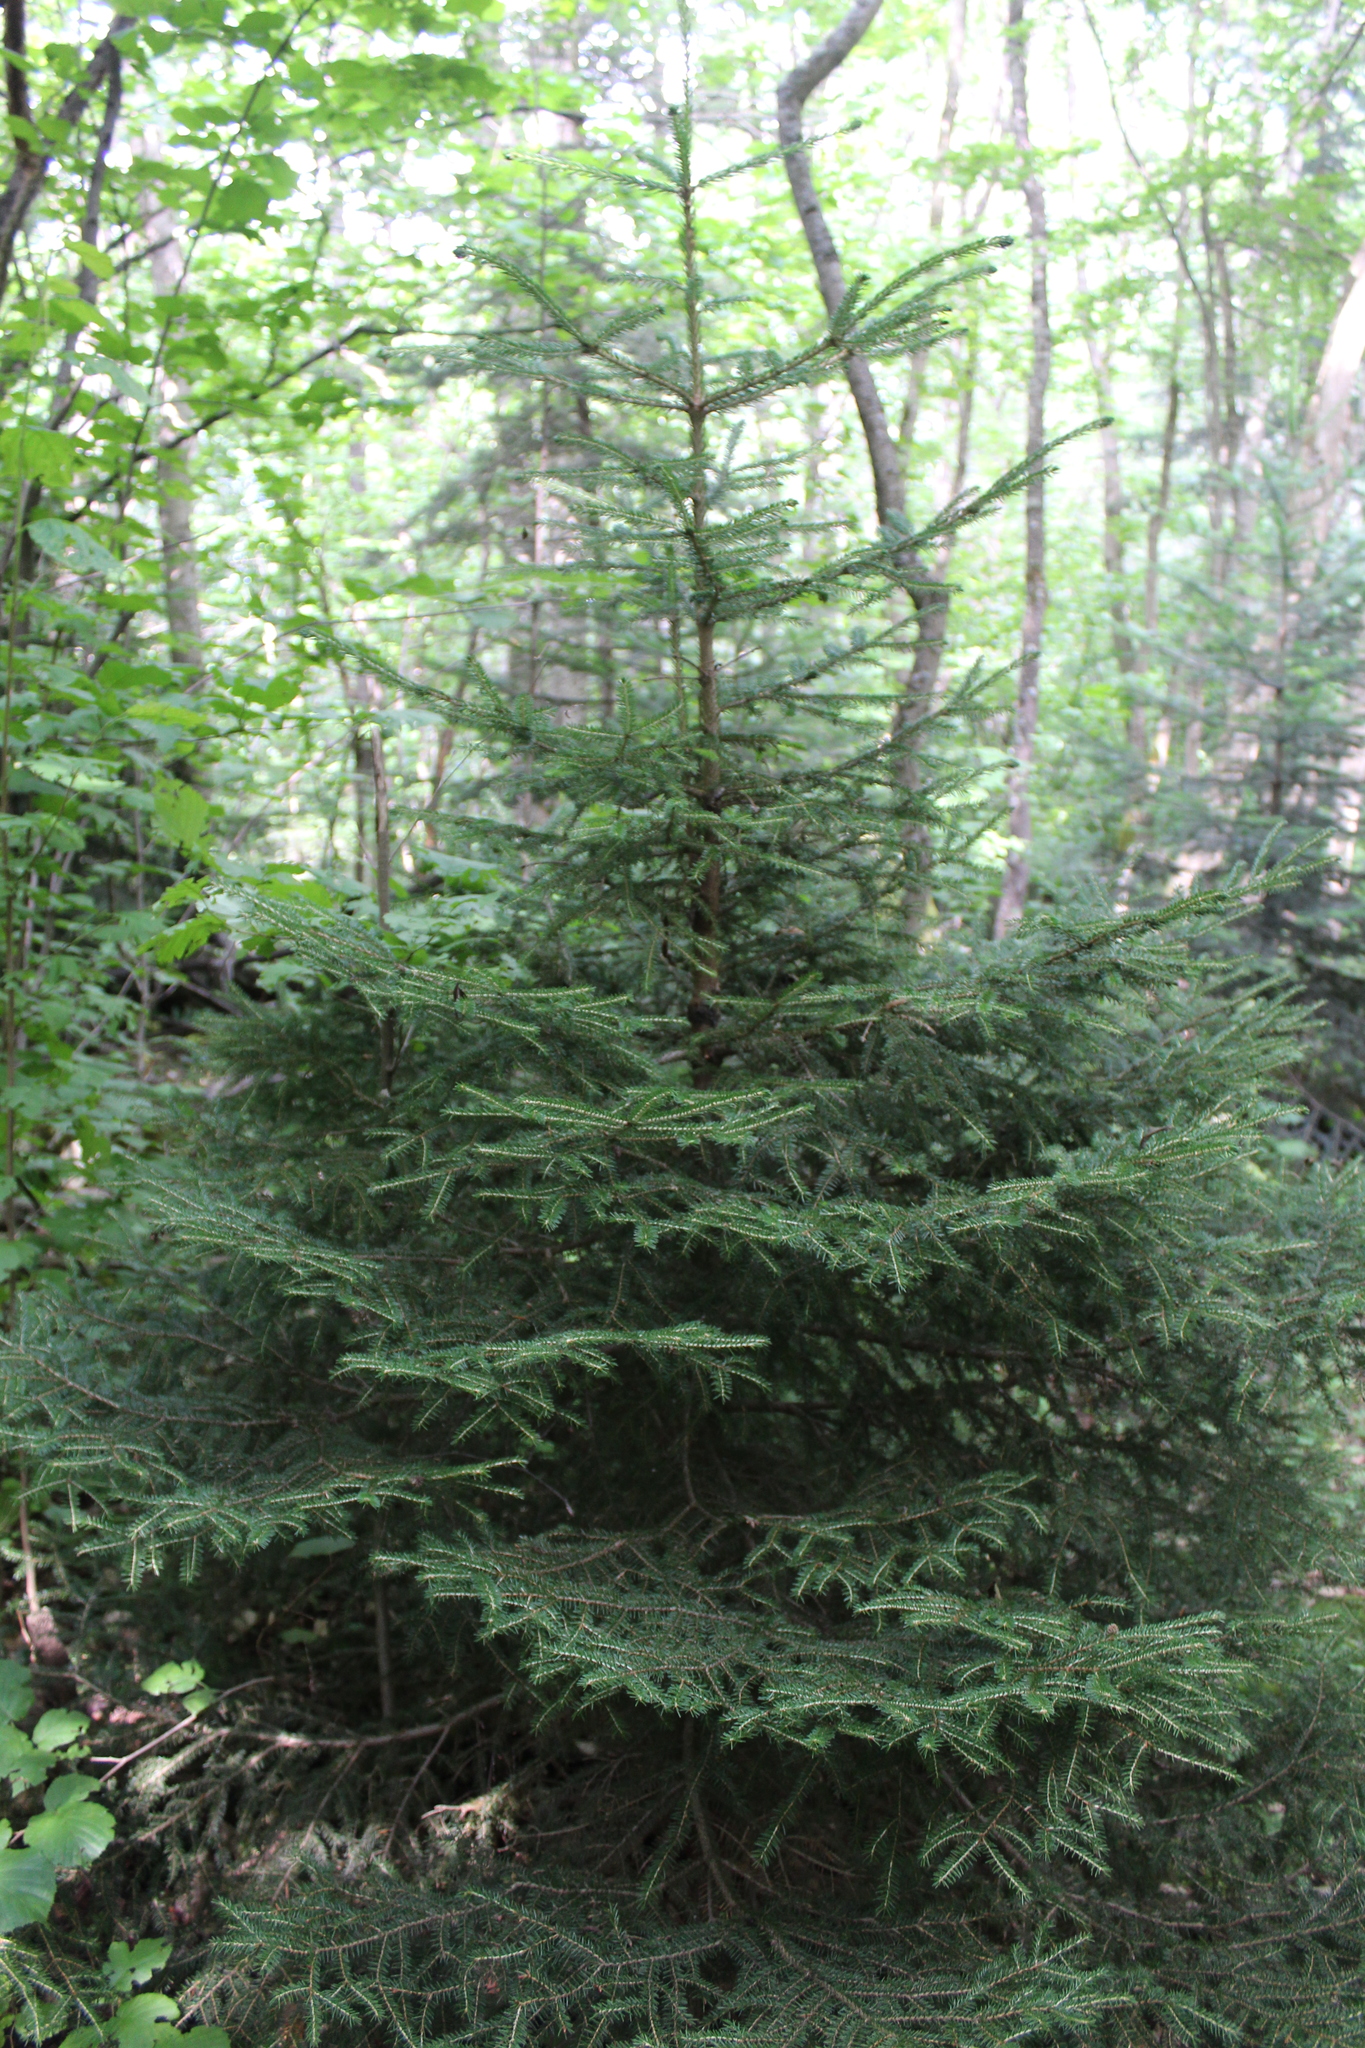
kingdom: Plantae
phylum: Tracheophyta
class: Pinopsida
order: Pinales
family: Pinaceae
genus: Picea
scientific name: Picea orientalis
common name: Oriental spruce
